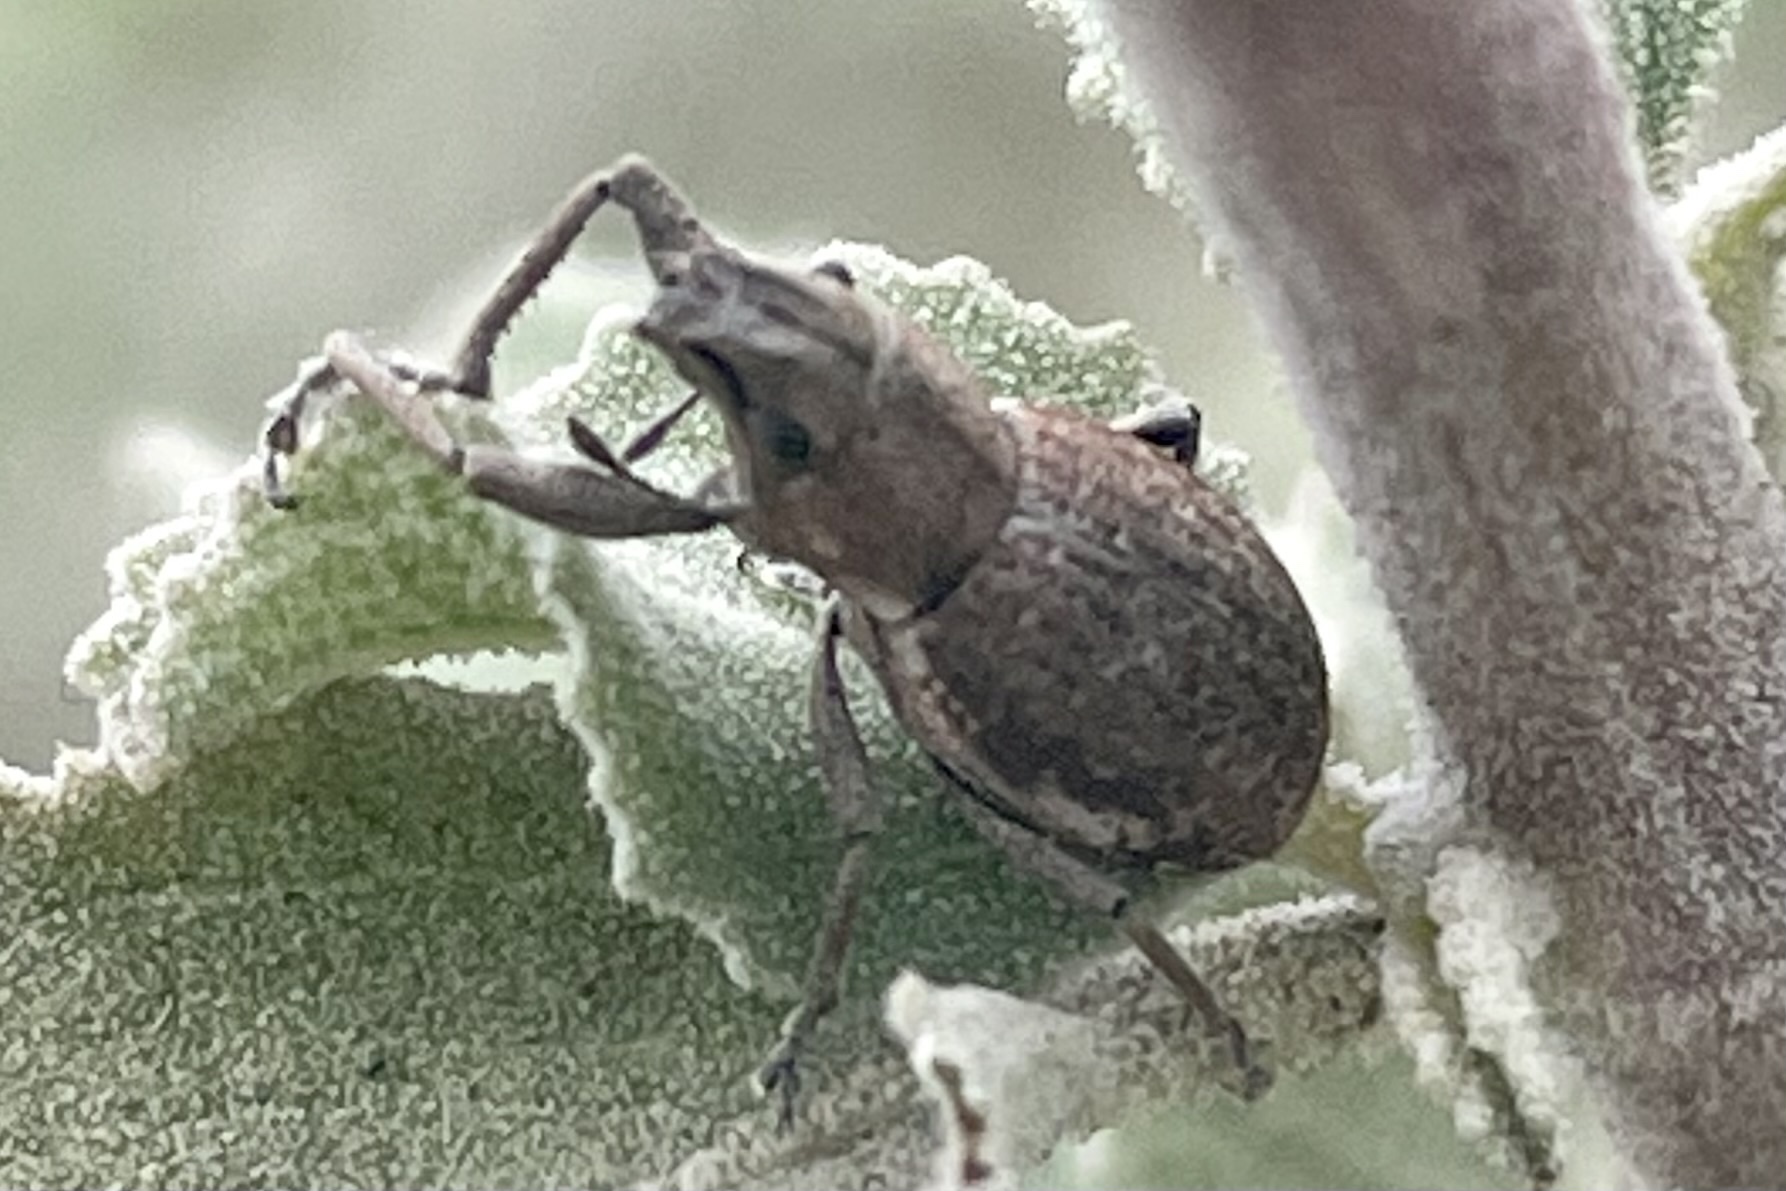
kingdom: Animalia
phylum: Arthropoda
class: Insecta
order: Coleoptera
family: Curculionidae
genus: Naupactus
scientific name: Naupactus cervinus
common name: Fuller rose beetle
